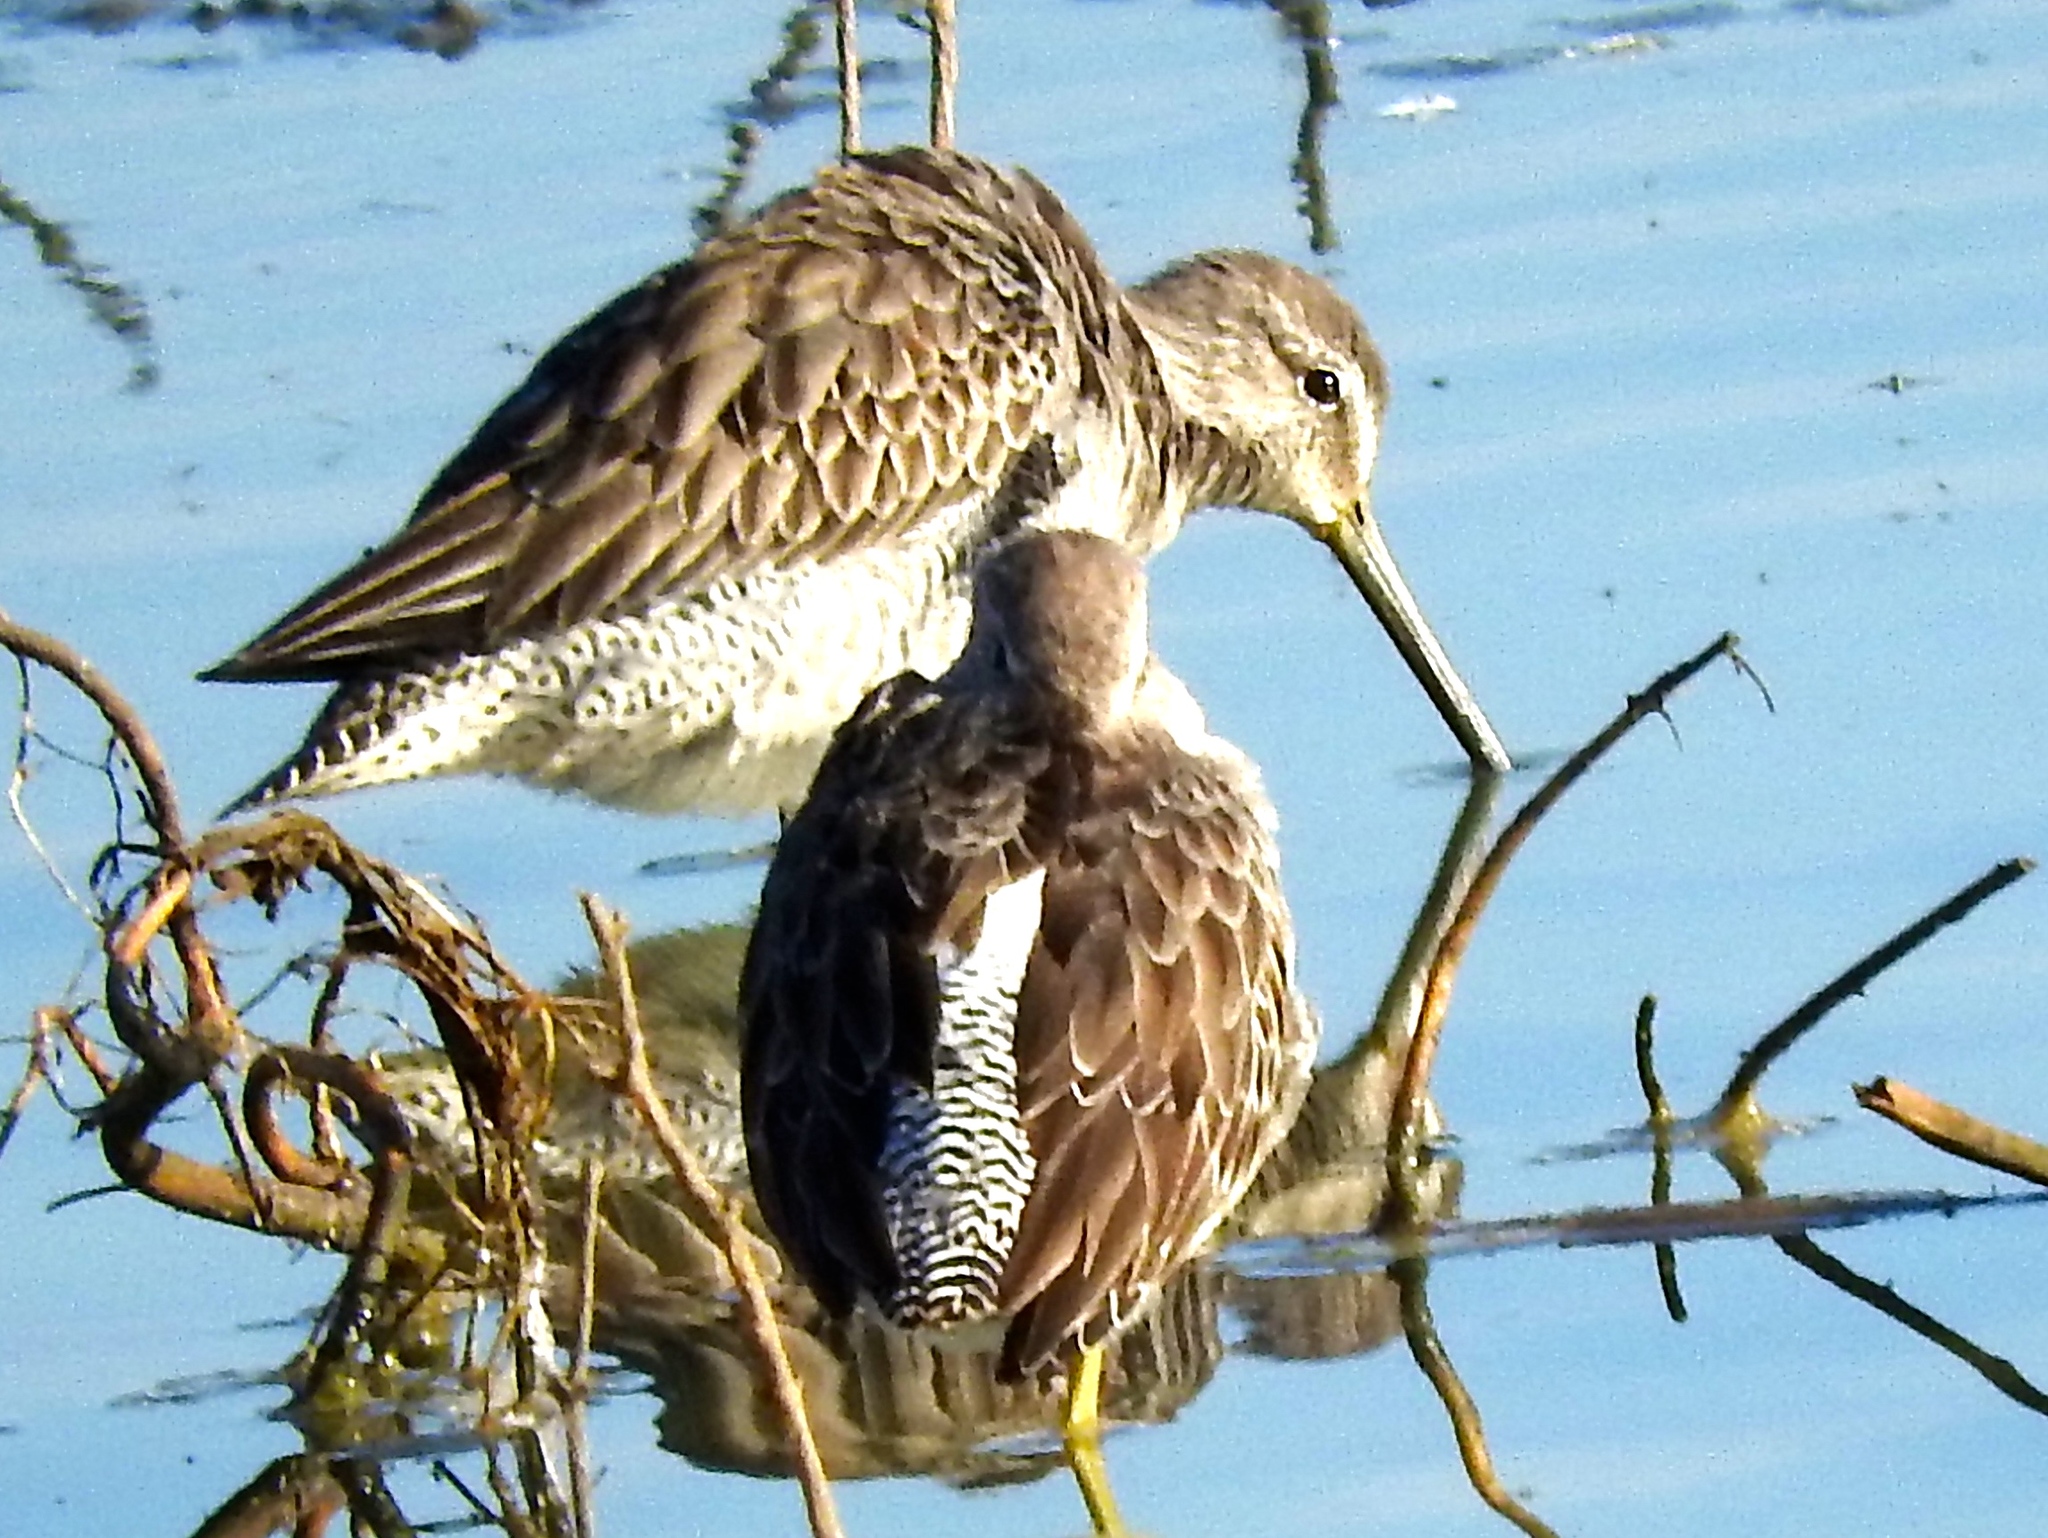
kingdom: Animalia
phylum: Chordata
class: Aves
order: Charadriiformes
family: Scolopacidae
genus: Limnodromus
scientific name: Limnodromus
